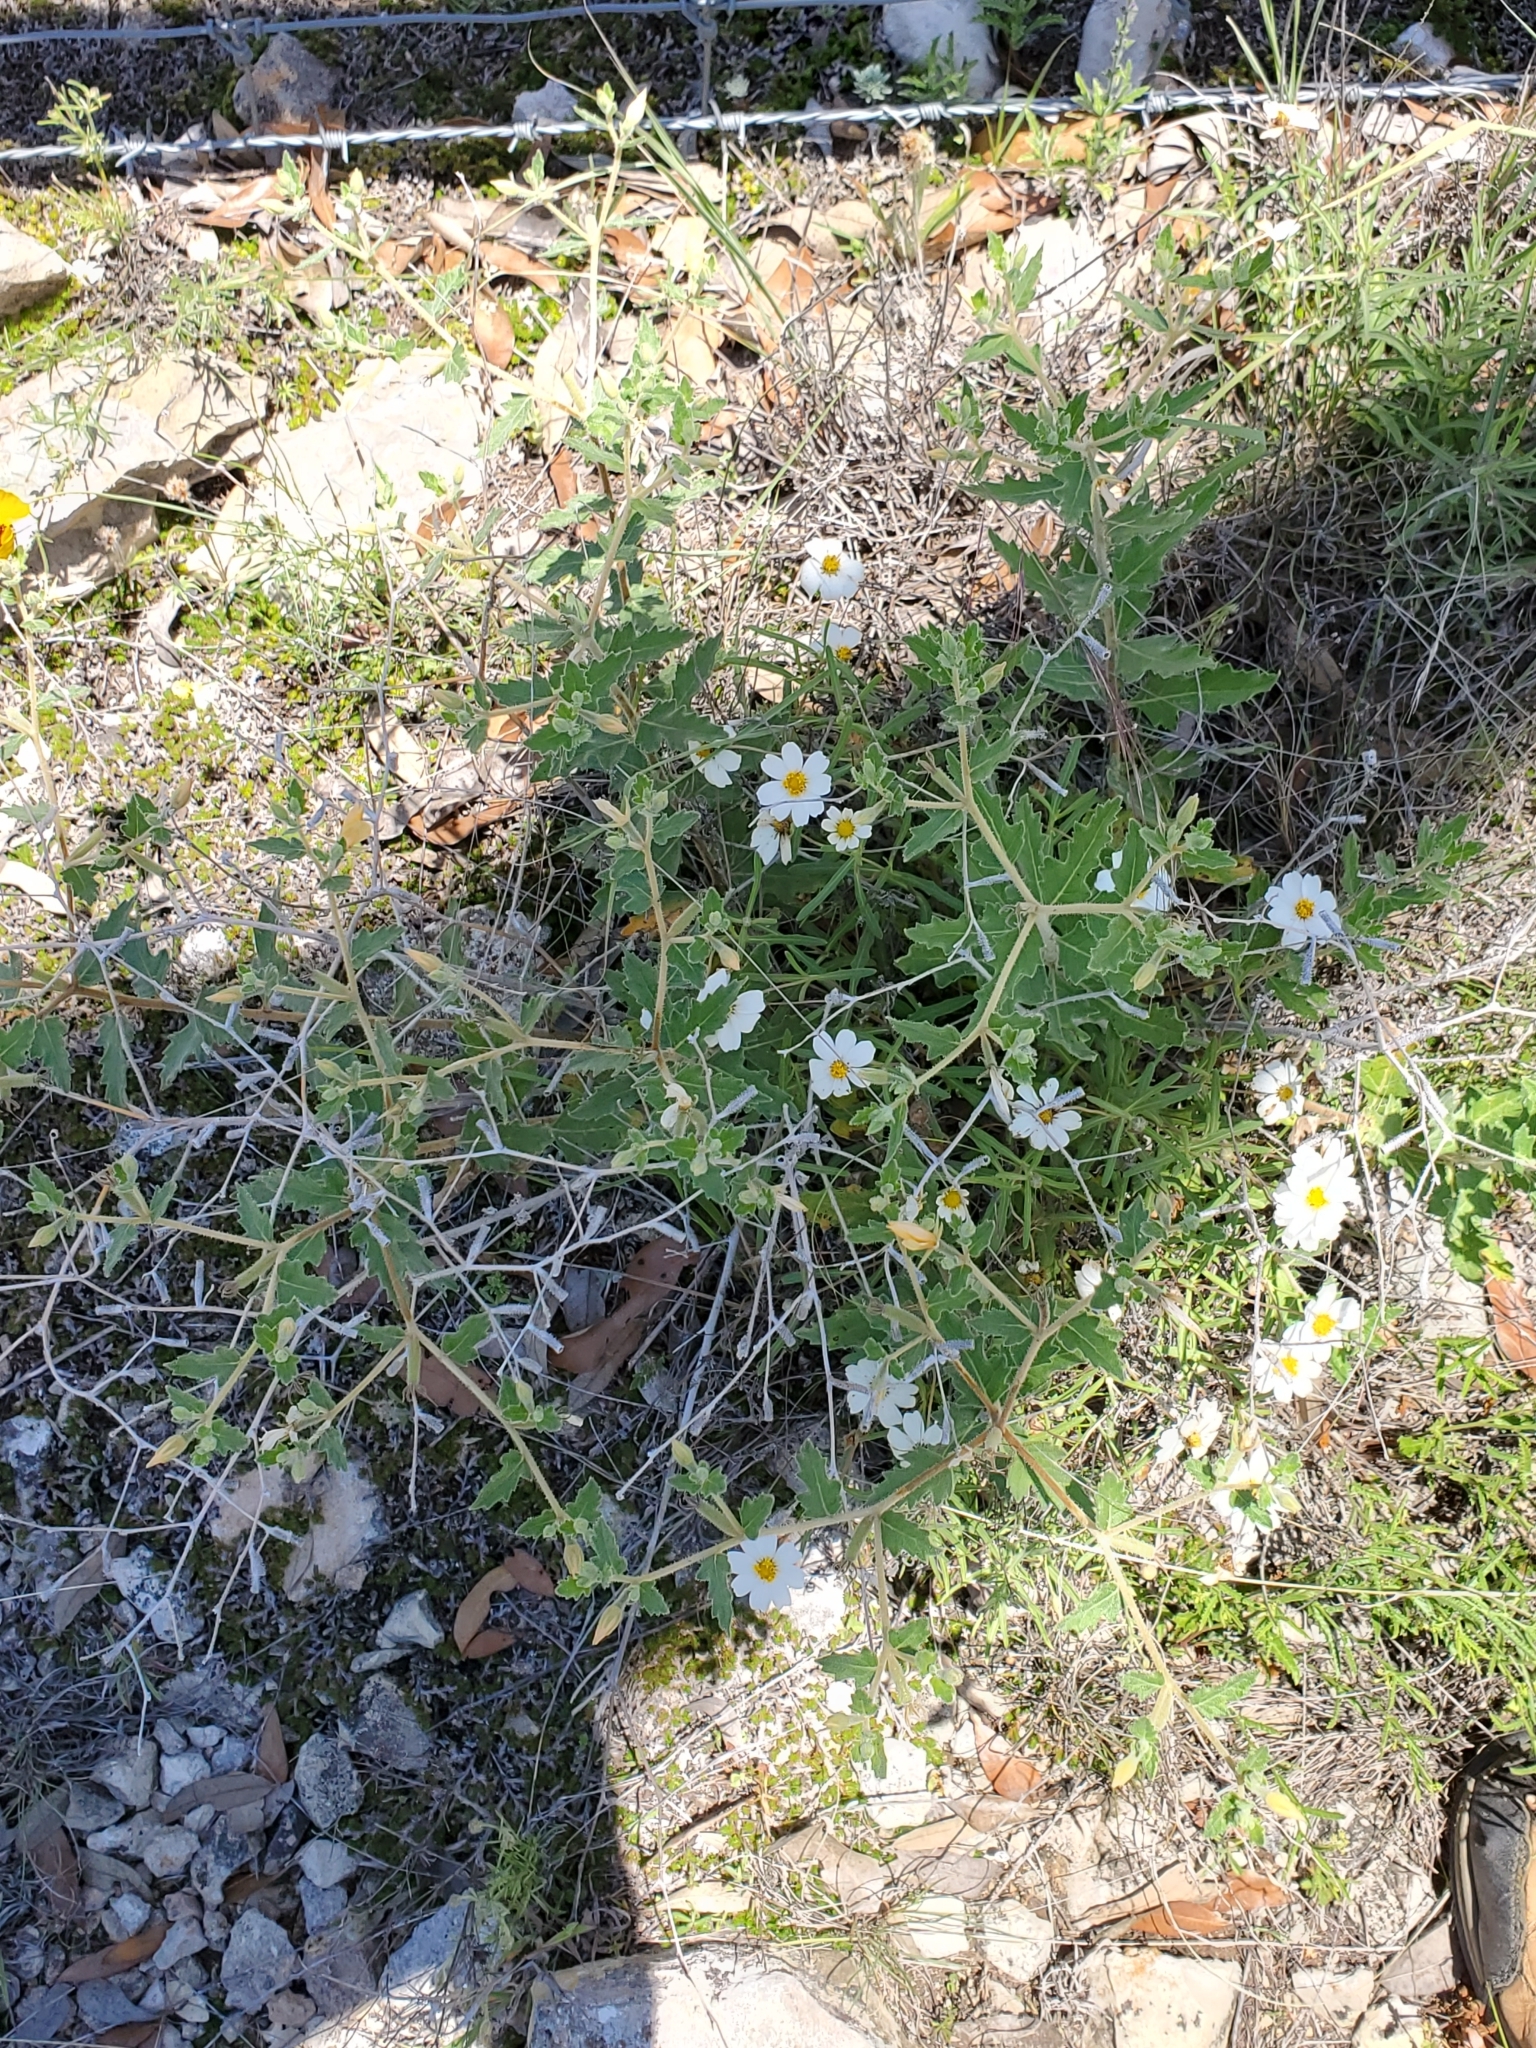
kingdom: Plantae
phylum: Tracheophyta
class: Magnoliopsida
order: Cornales
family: Loasaceae
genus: Mentzelia
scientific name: Mentzelia oligosperma
